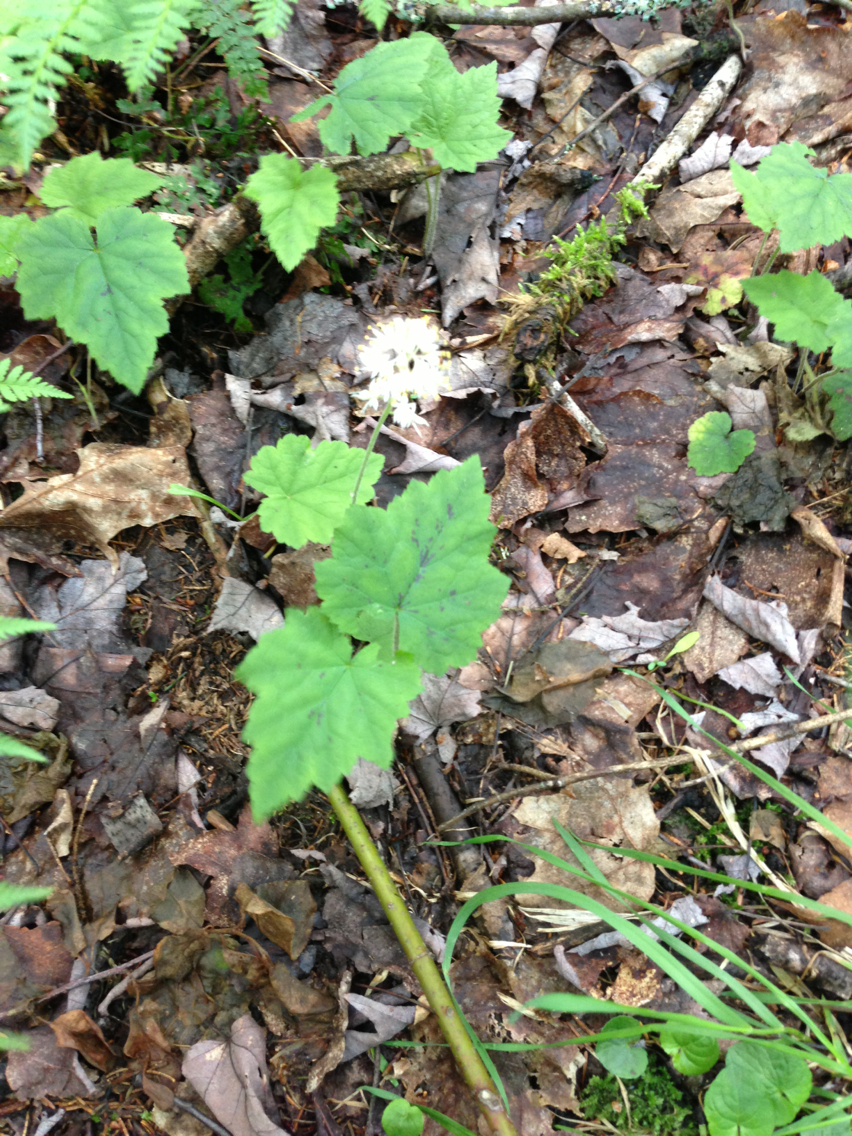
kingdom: Plantae
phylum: Tracheophyta
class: Magnoliopsida
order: Saxifragales
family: Saxifragaceae
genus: Tiarella
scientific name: Tiarella stolonifera
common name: Stoloniferous foamflower
